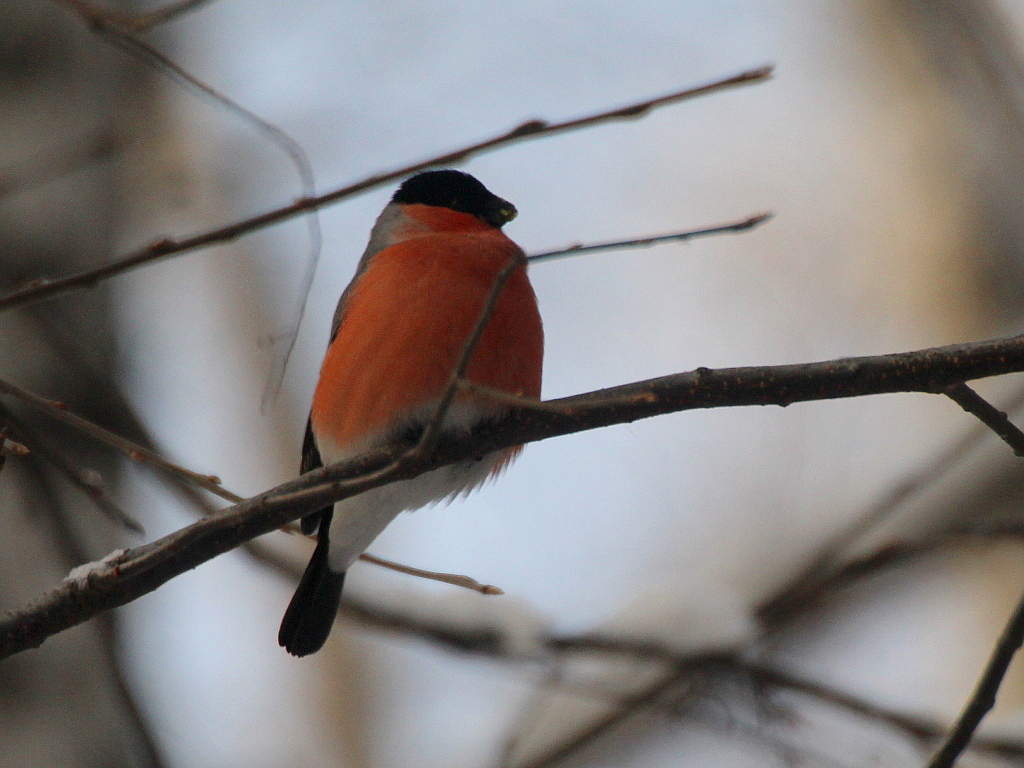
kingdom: Animalia
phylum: Chordata
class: Aves
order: Passeriformes
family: Fringillidae
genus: Pyrrhula
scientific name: Pyrrhula pyrrhula
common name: Eurasian bullfinch
